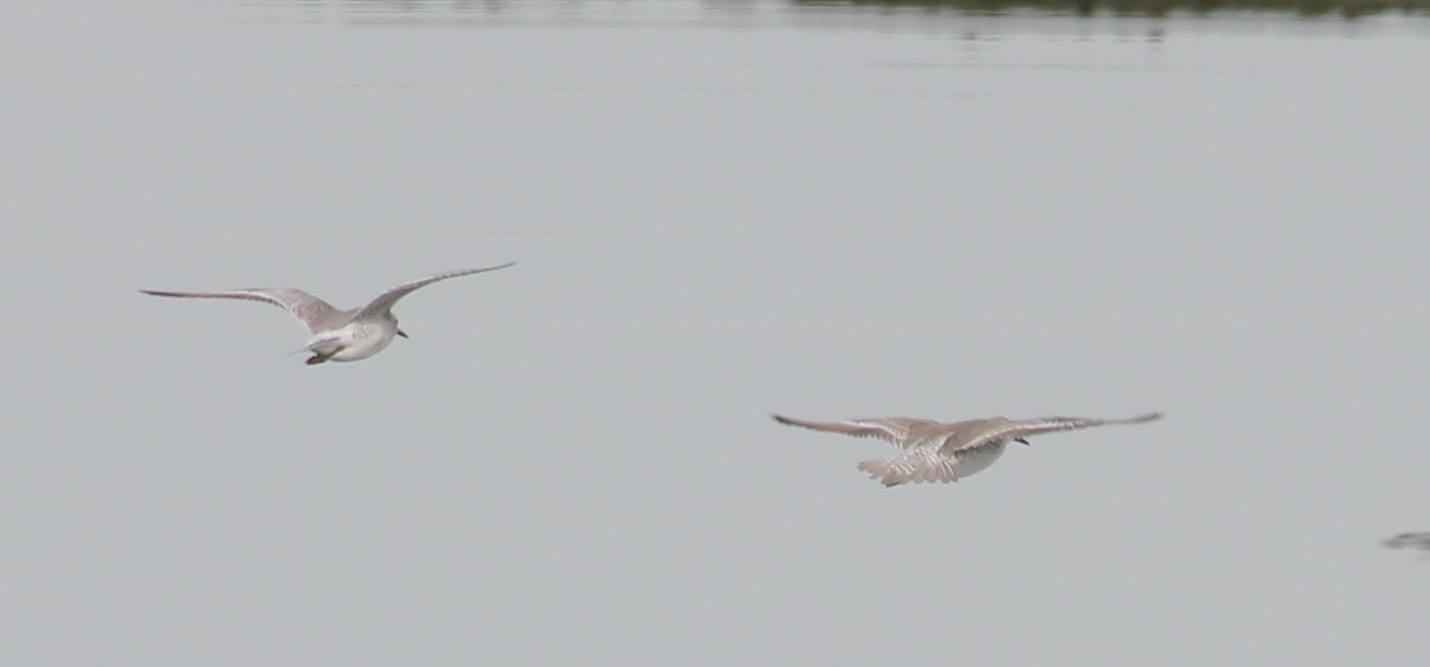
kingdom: Animalia
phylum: Chordata
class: Aves
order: Charadriiformes
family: Scolopacidae
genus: Calidris
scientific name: Calidris canutus
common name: Red knot
